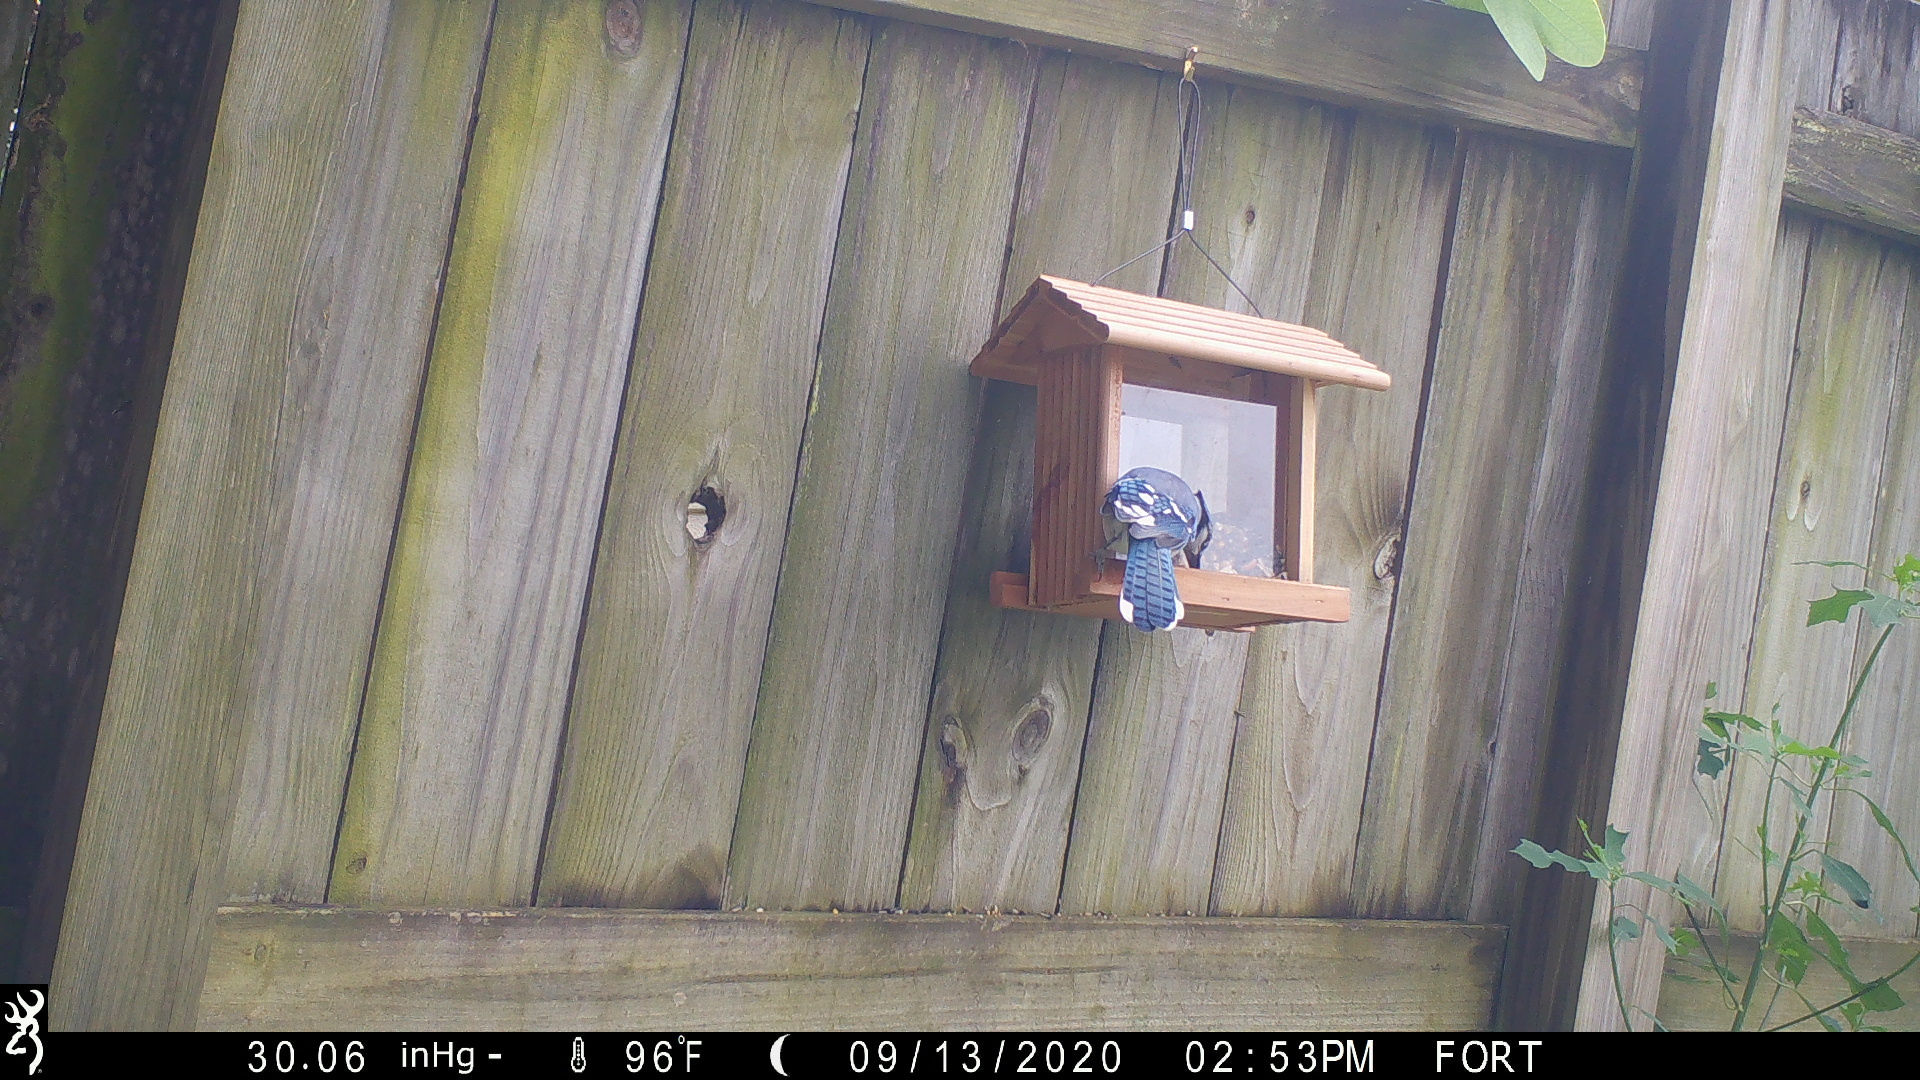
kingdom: Animalia
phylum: Chordata
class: Aves
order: Passeriformes
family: Corvidae
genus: Cyanocitta
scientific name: Cyanocitta cristata
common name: Blue jay
